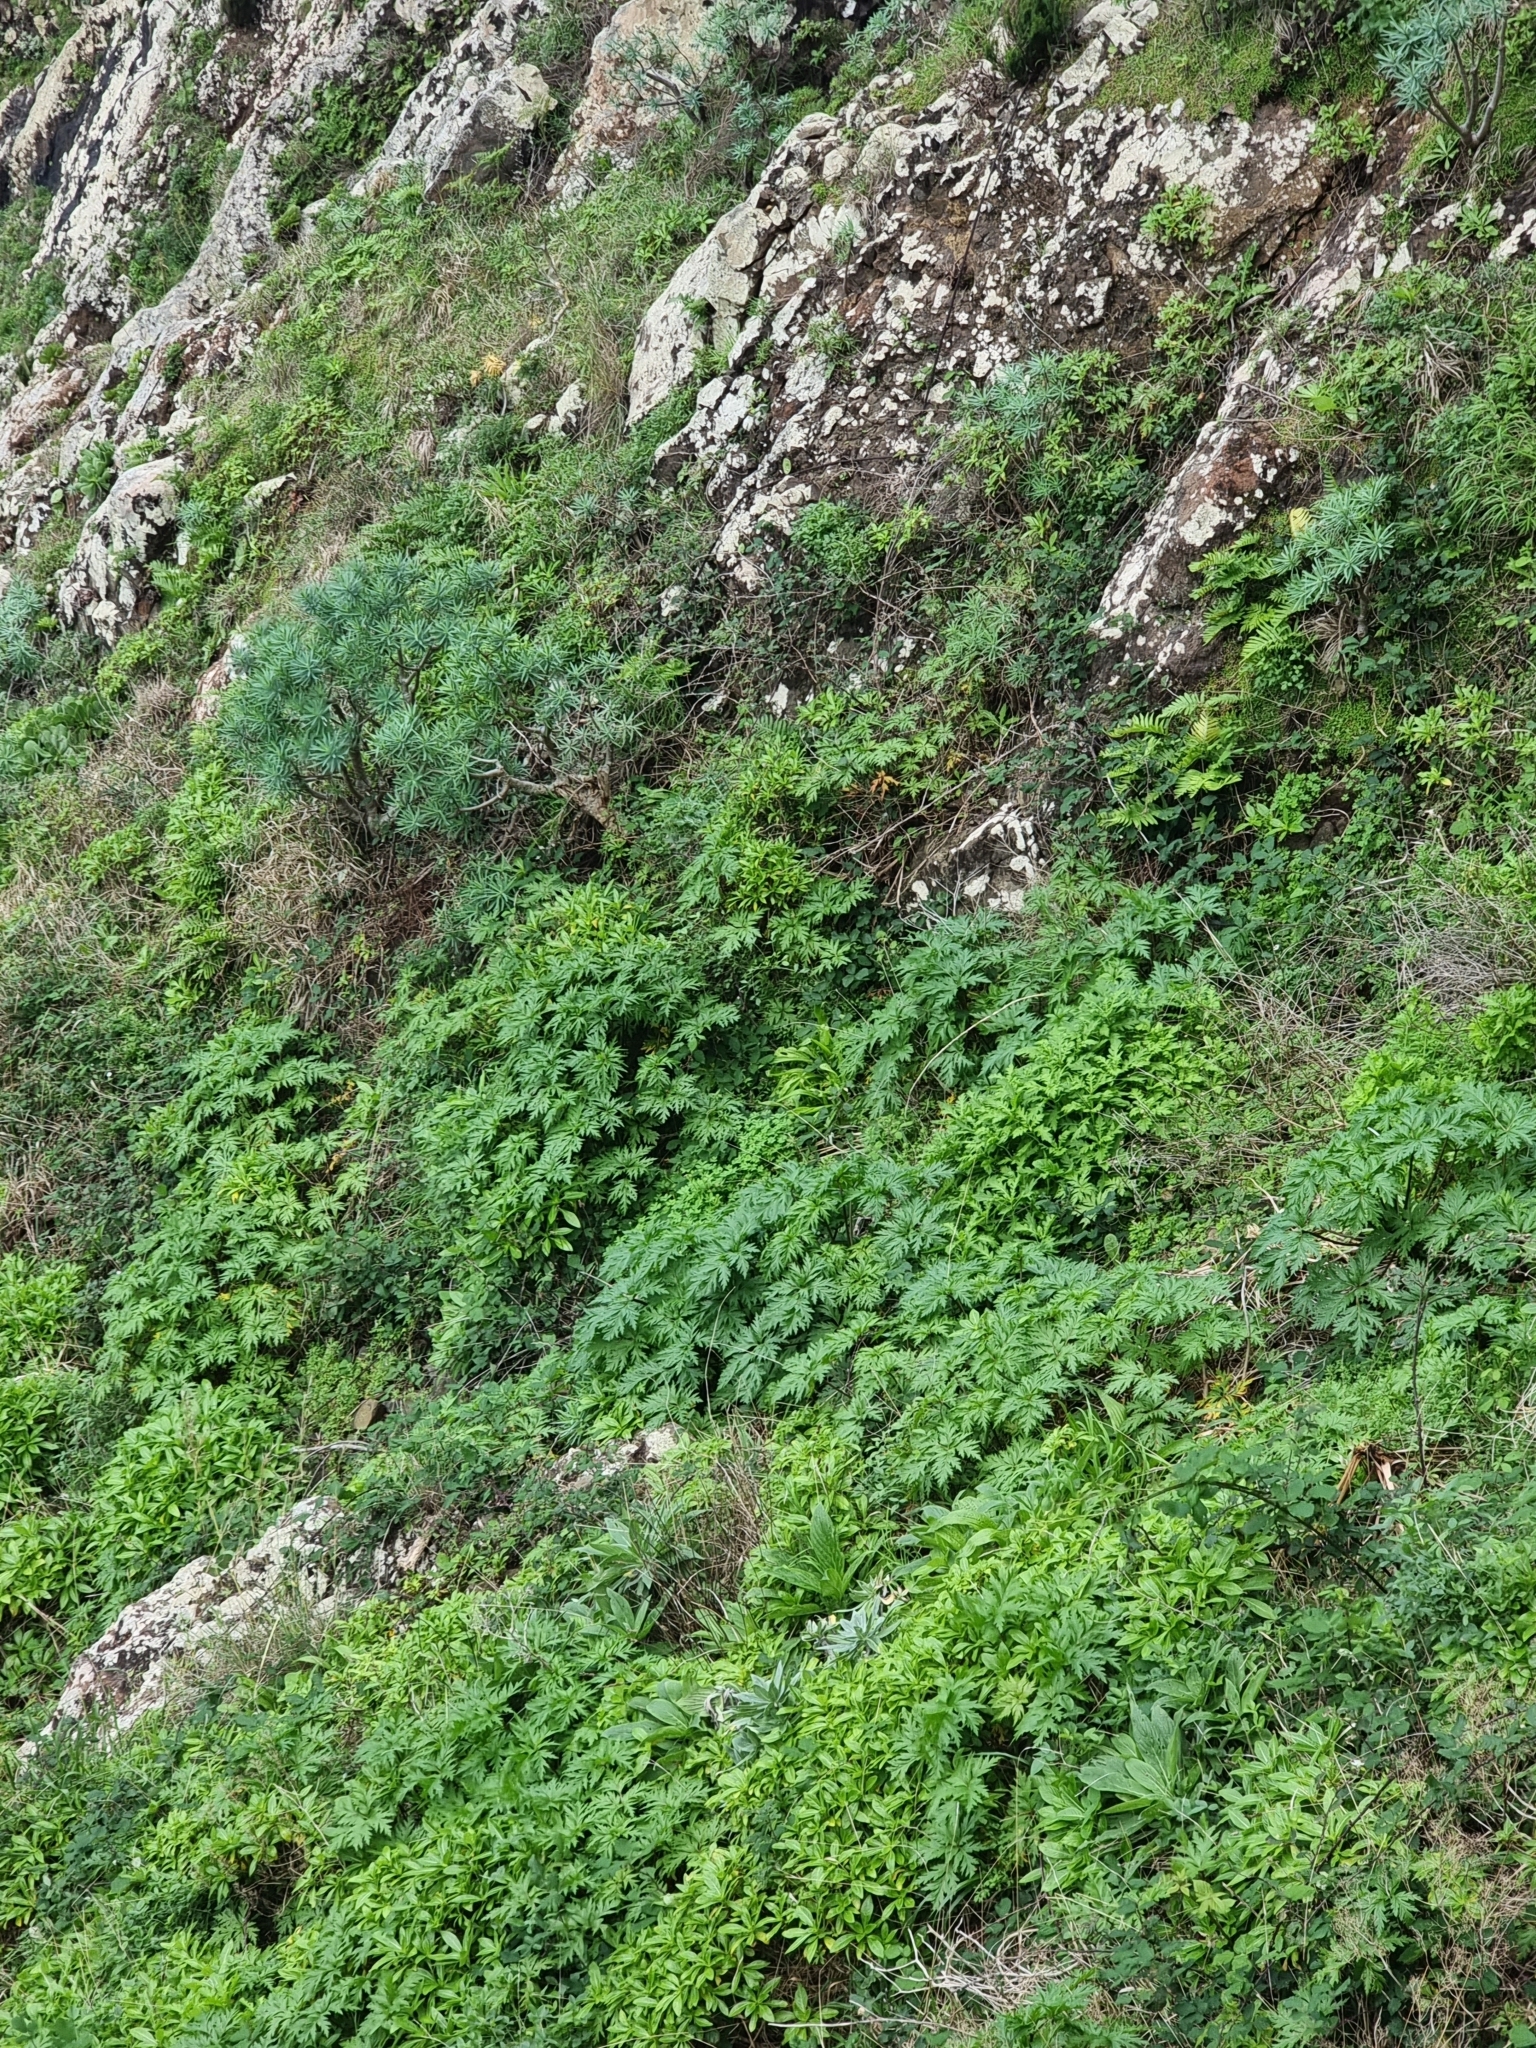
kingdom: Plantae
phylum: Tracheophyta
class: Magnoliopsida
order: Geraniales
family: Geraniaceae
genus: Geranium
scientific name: Geranium maderense
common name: Giant herb-robert
